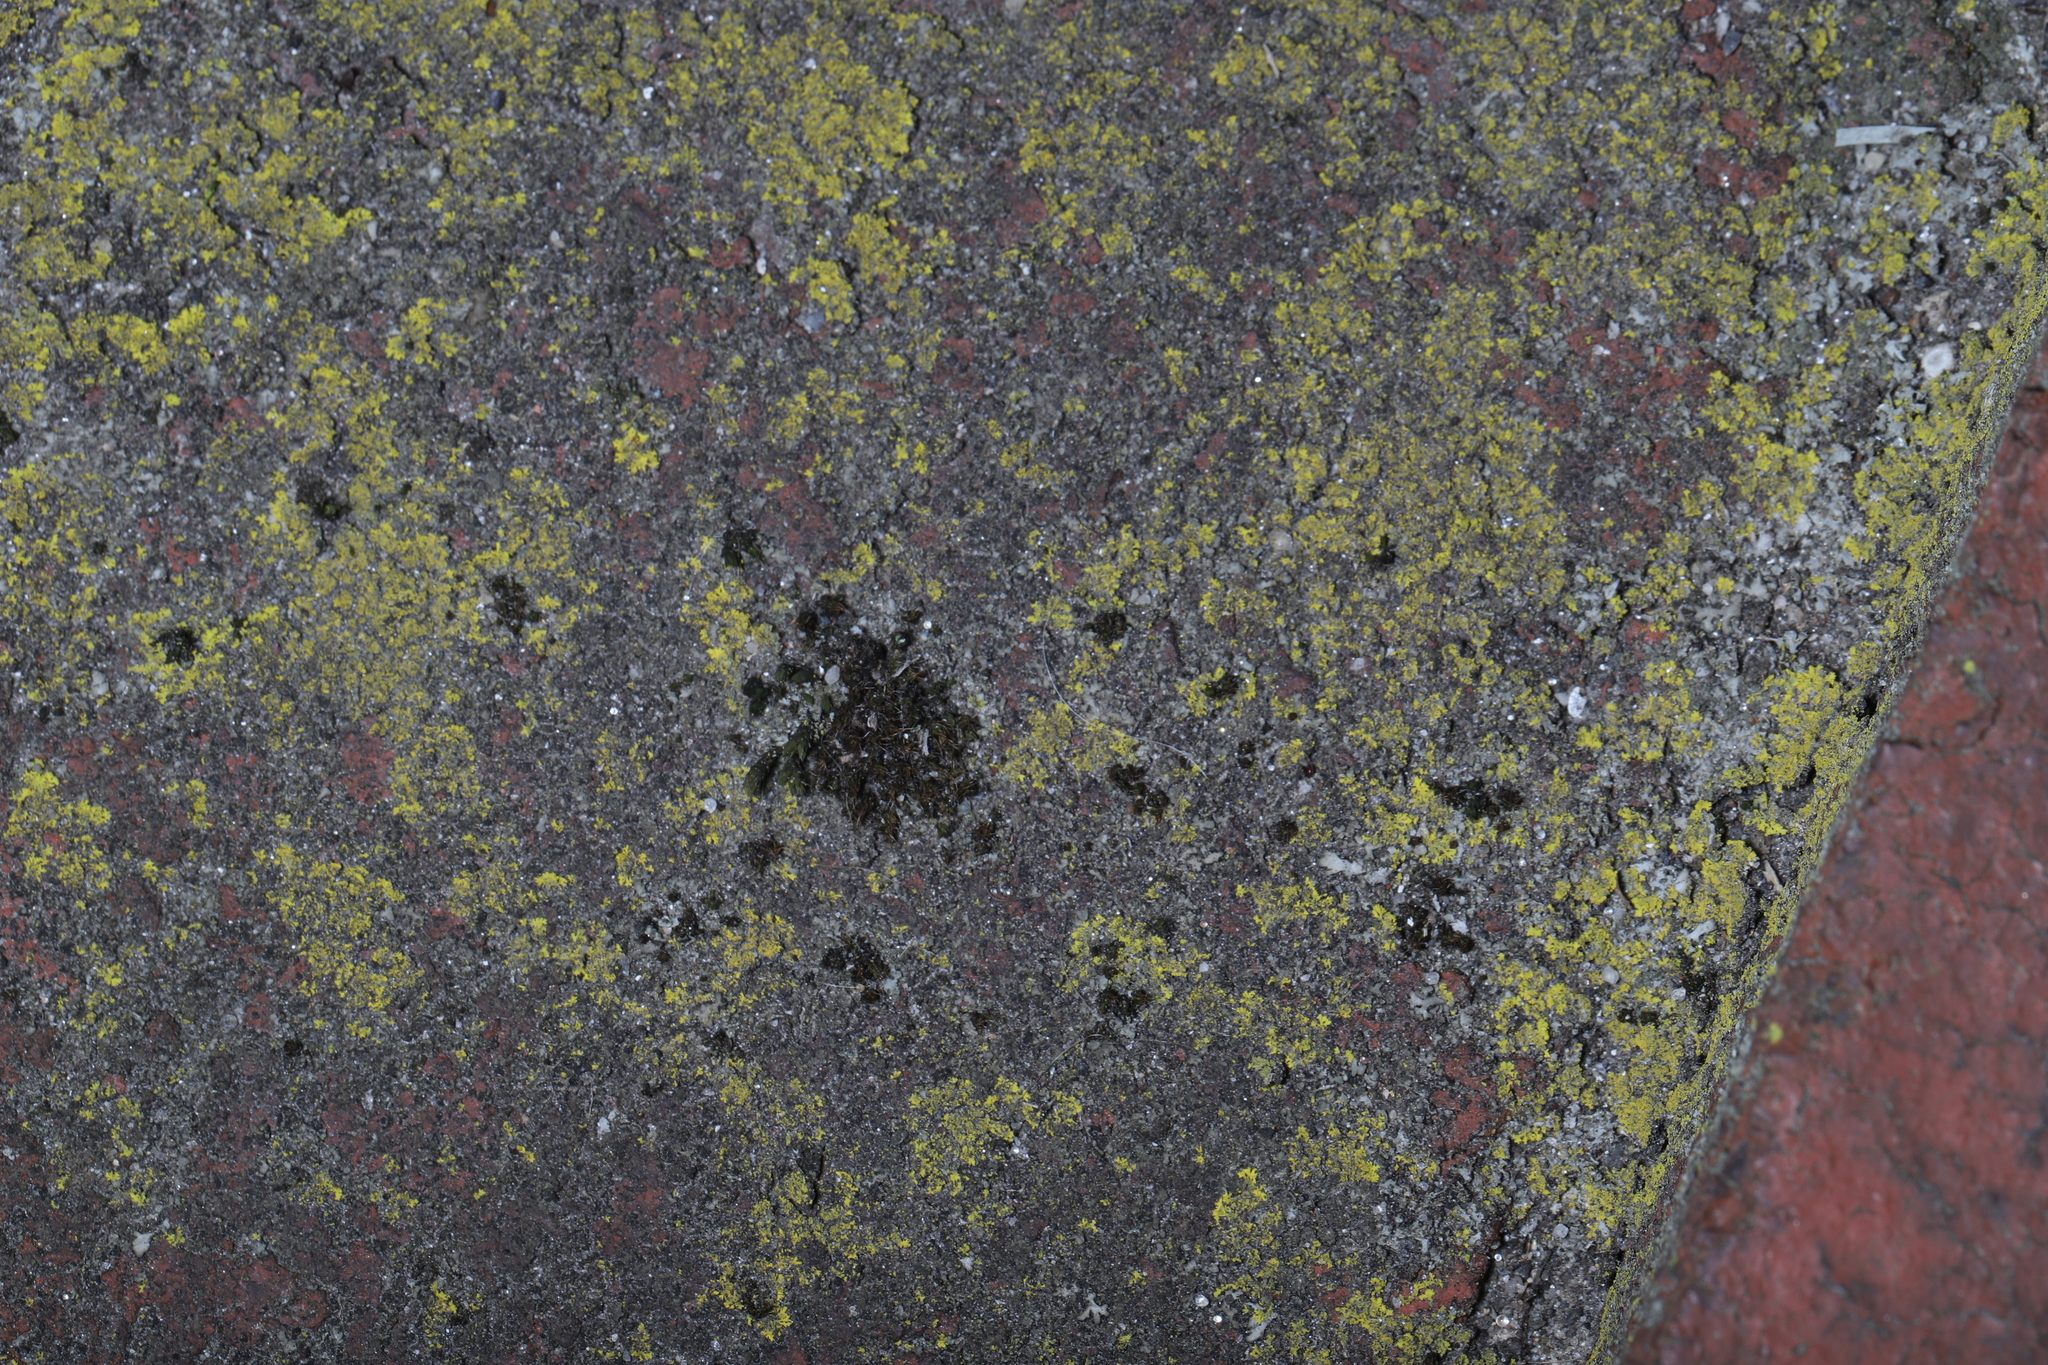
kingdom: Fungi
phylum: Ascomycota
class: Candelariomycetes
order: Candelariales
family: Candelariaceae
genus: Candelaria
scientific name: Candelaria concolor
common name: Candleflame lichen
